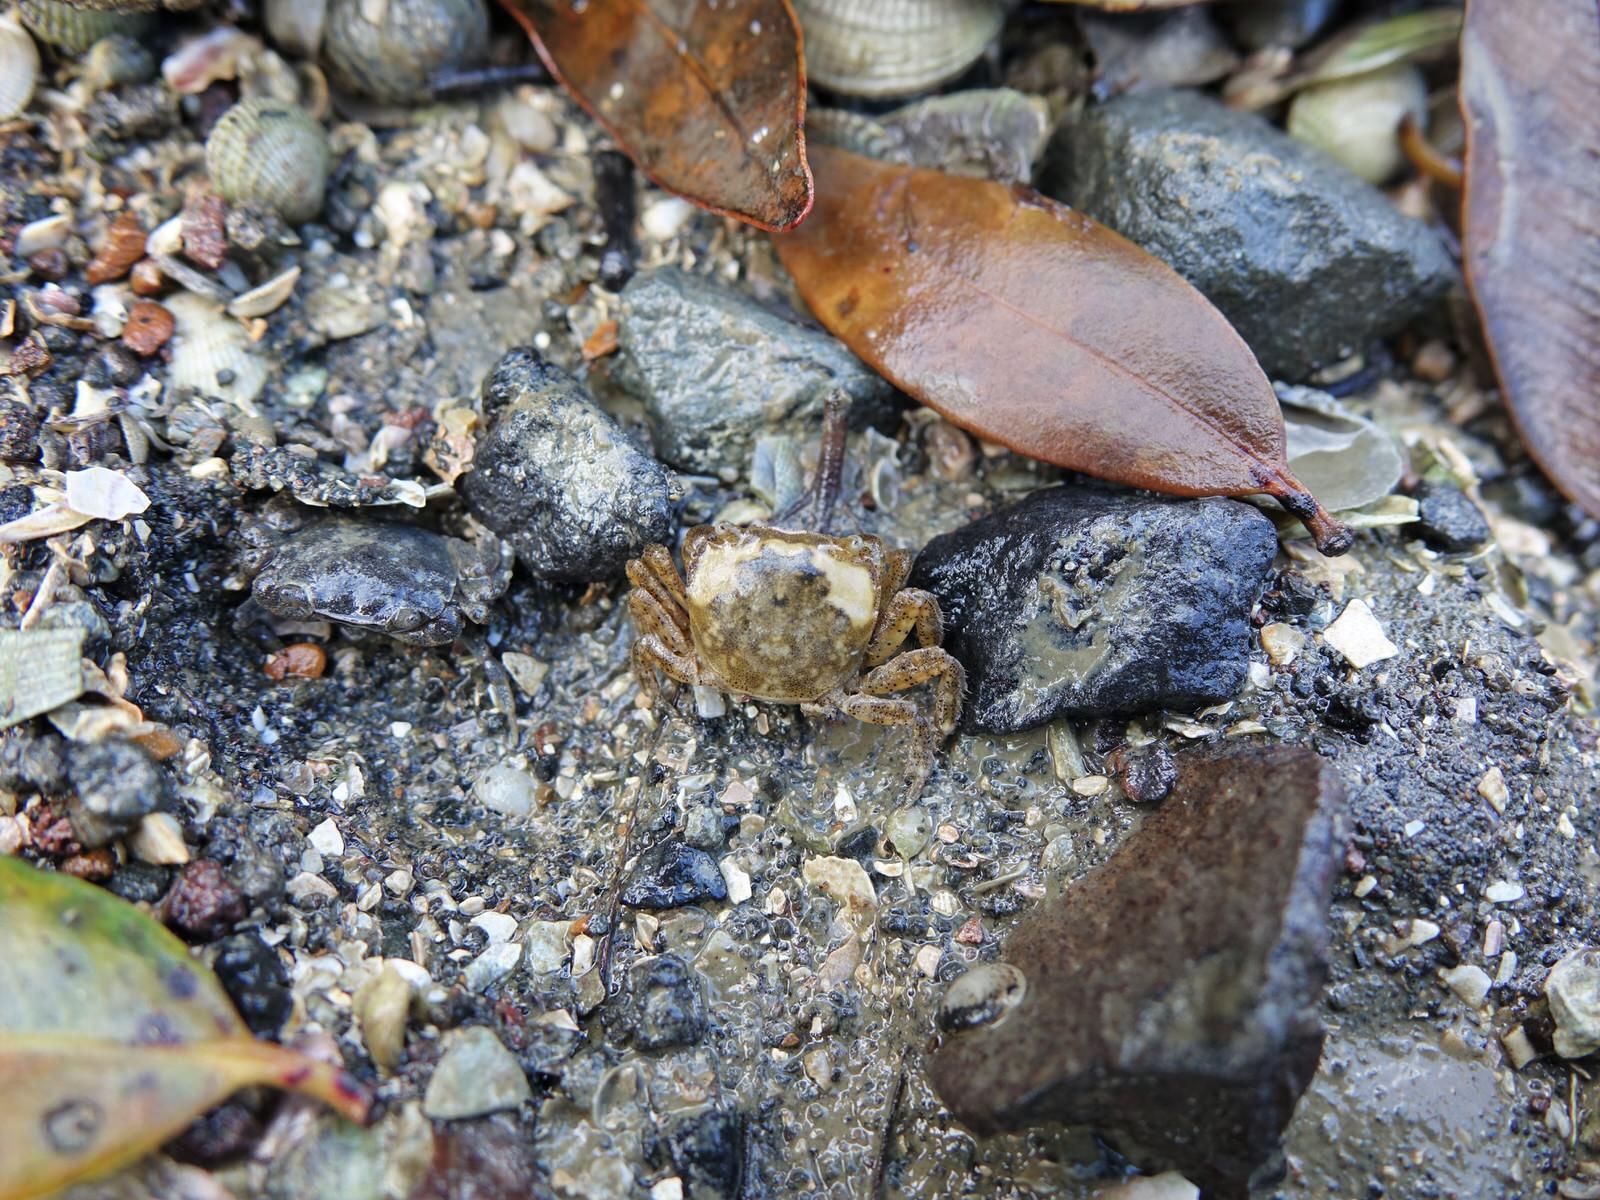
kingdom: Animalia
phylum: Arthropoda
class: Malacostraca
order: Decapoda
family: Varunidae
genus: Hemigrapsus
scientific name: Hemigrapsus crenulatus
